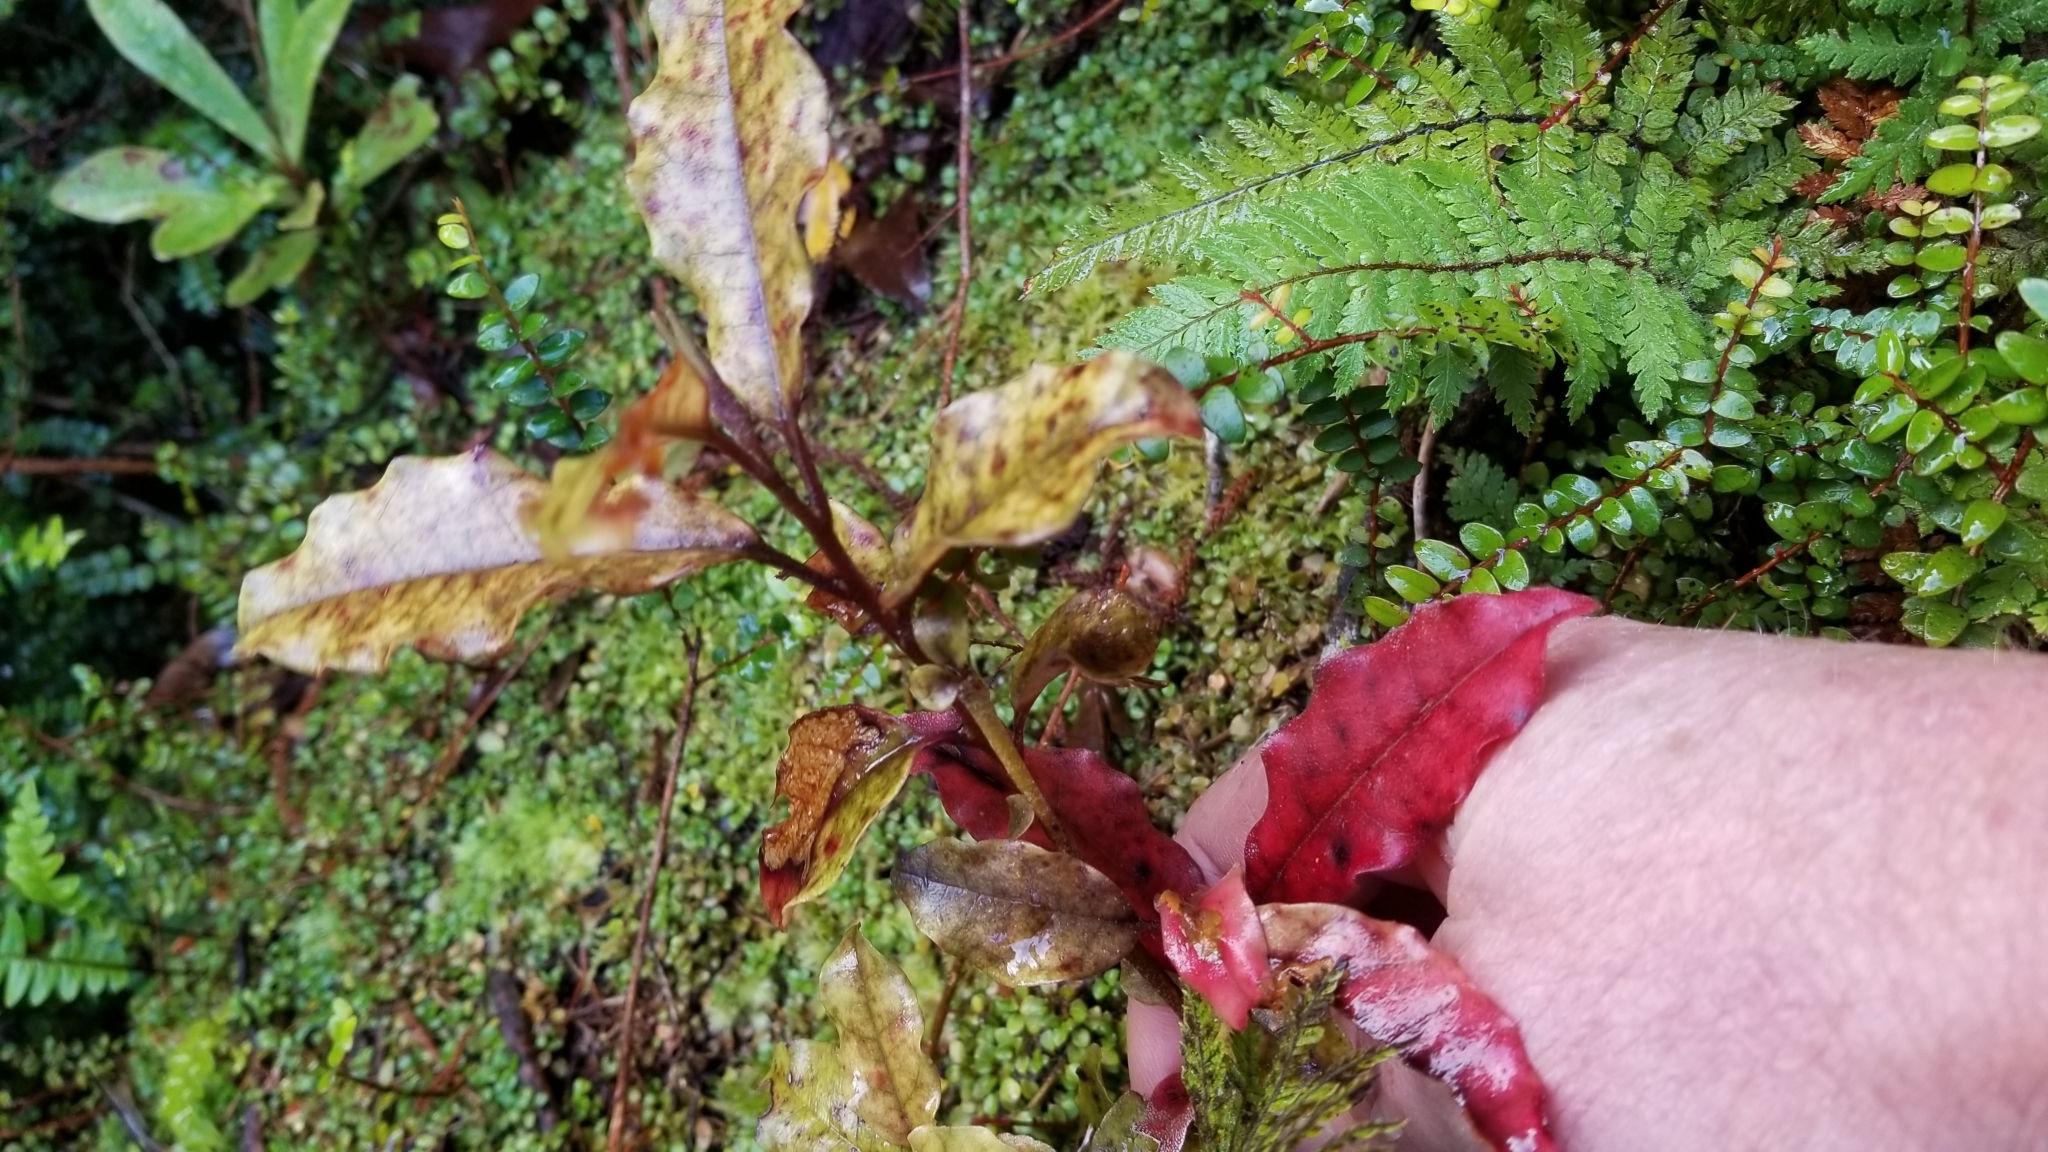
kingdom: Plantae
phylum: Tracheophyta
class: Magnoliopsida
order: Paracryphiales
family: Paracryphiaceae
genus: Quintinia
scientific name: Quintinia serrata
